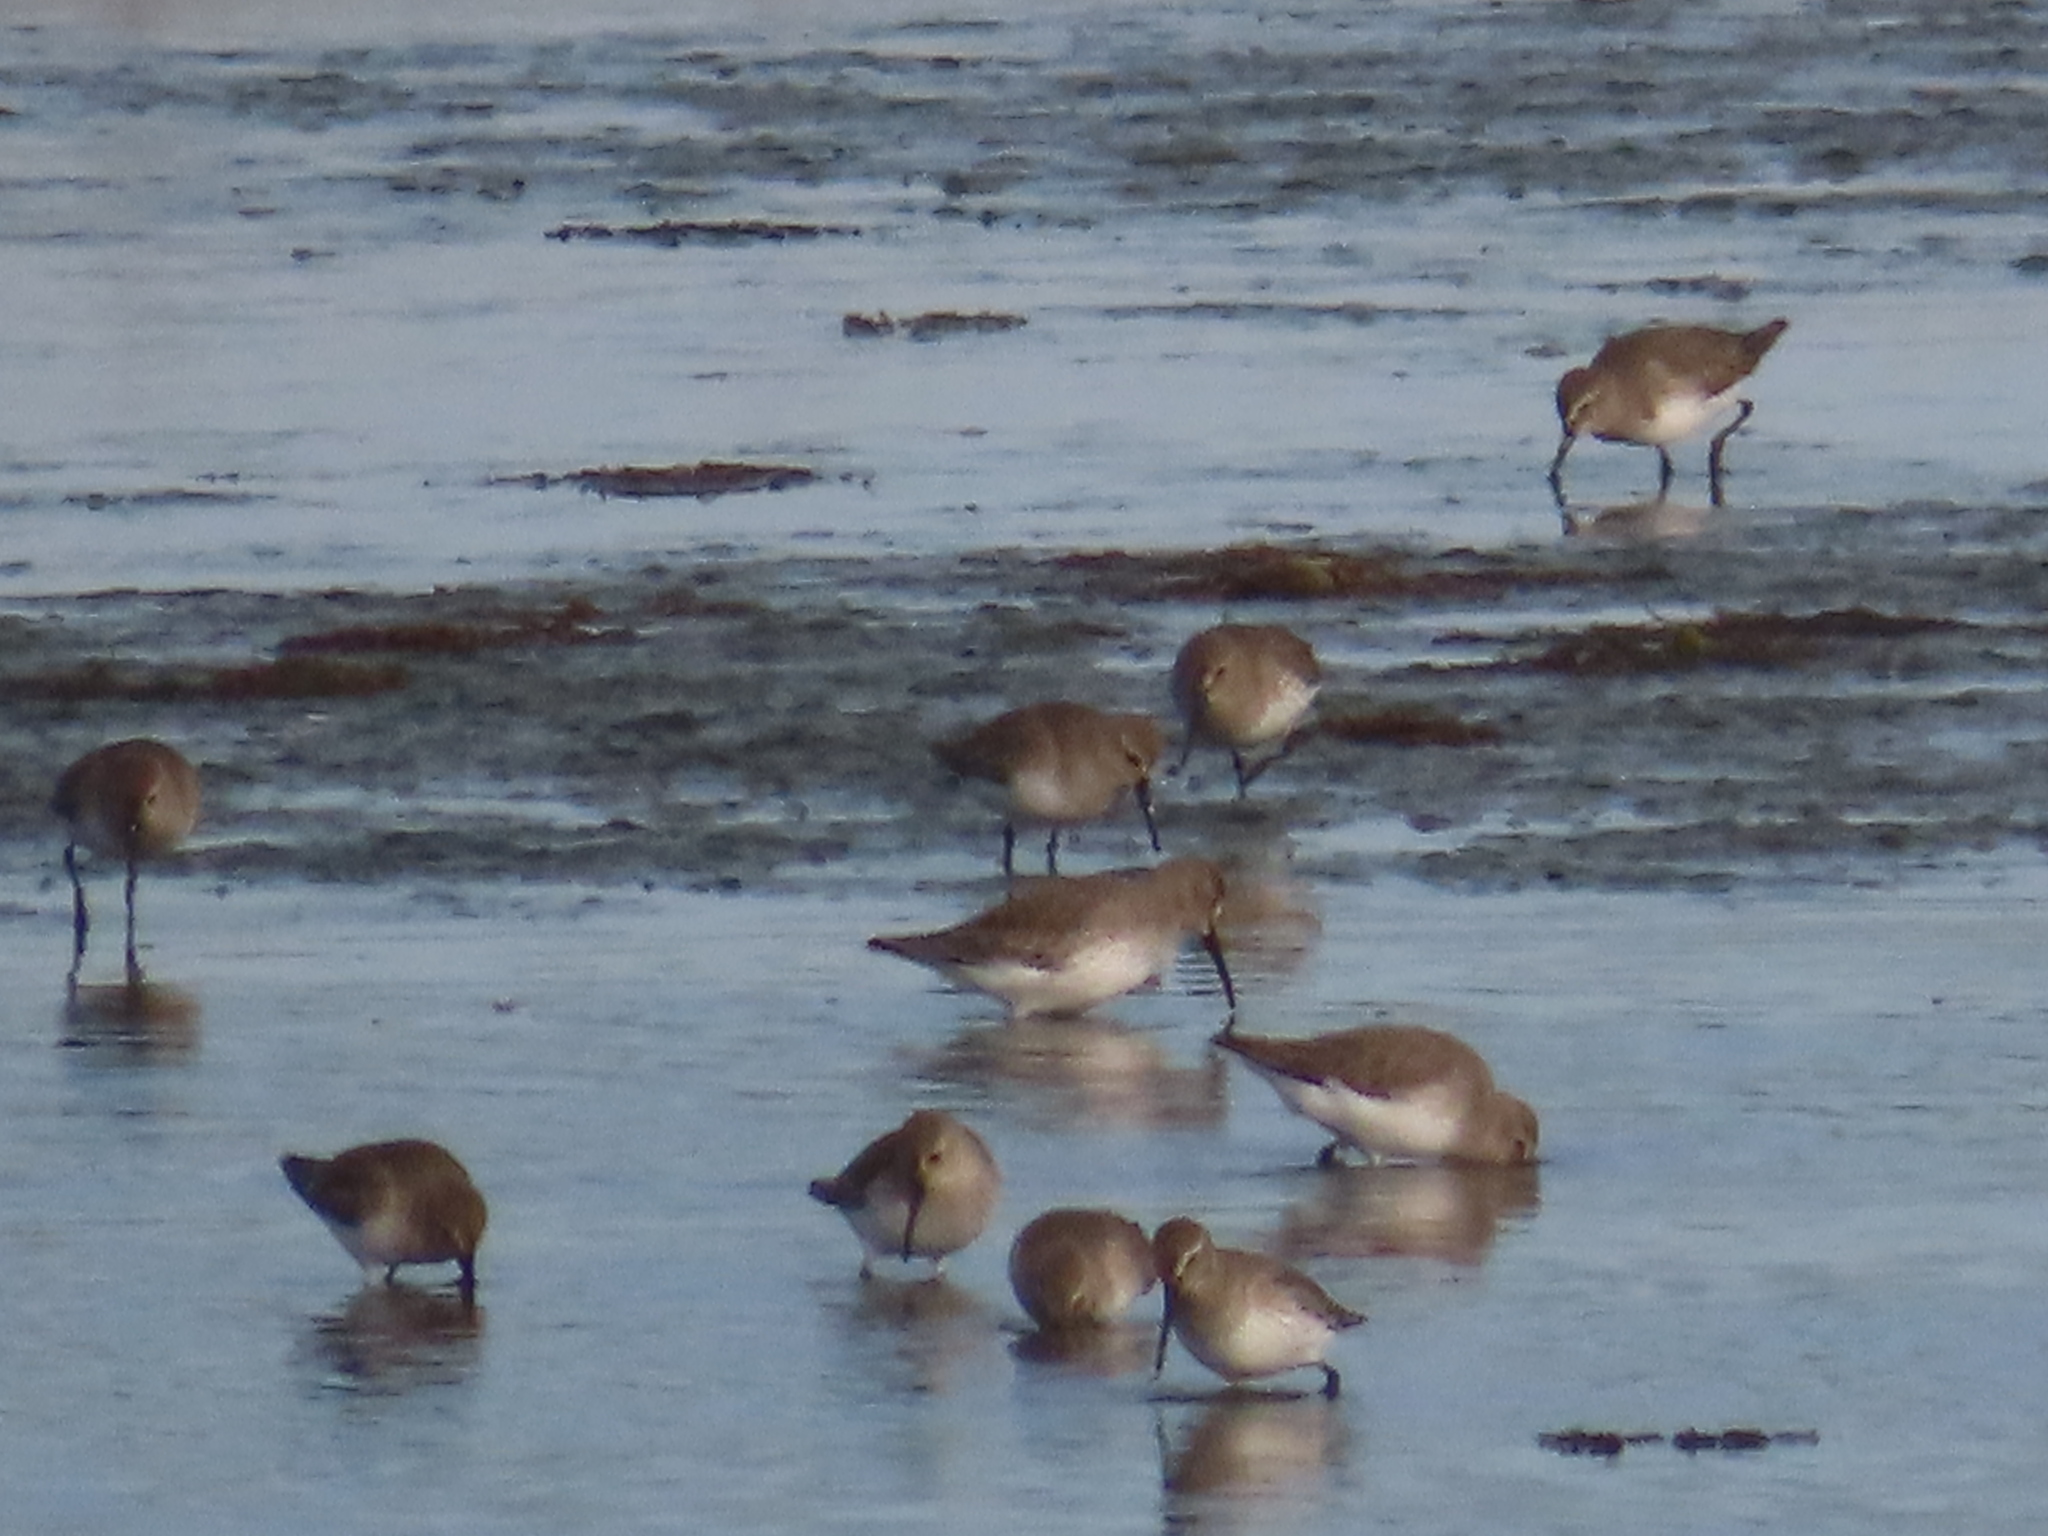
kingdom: Animalia
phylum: Chordata
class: Aves
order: Charadriiformes
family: Scolopacidae
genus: Calidris
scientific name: Calidris alpina
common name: Dunlin
